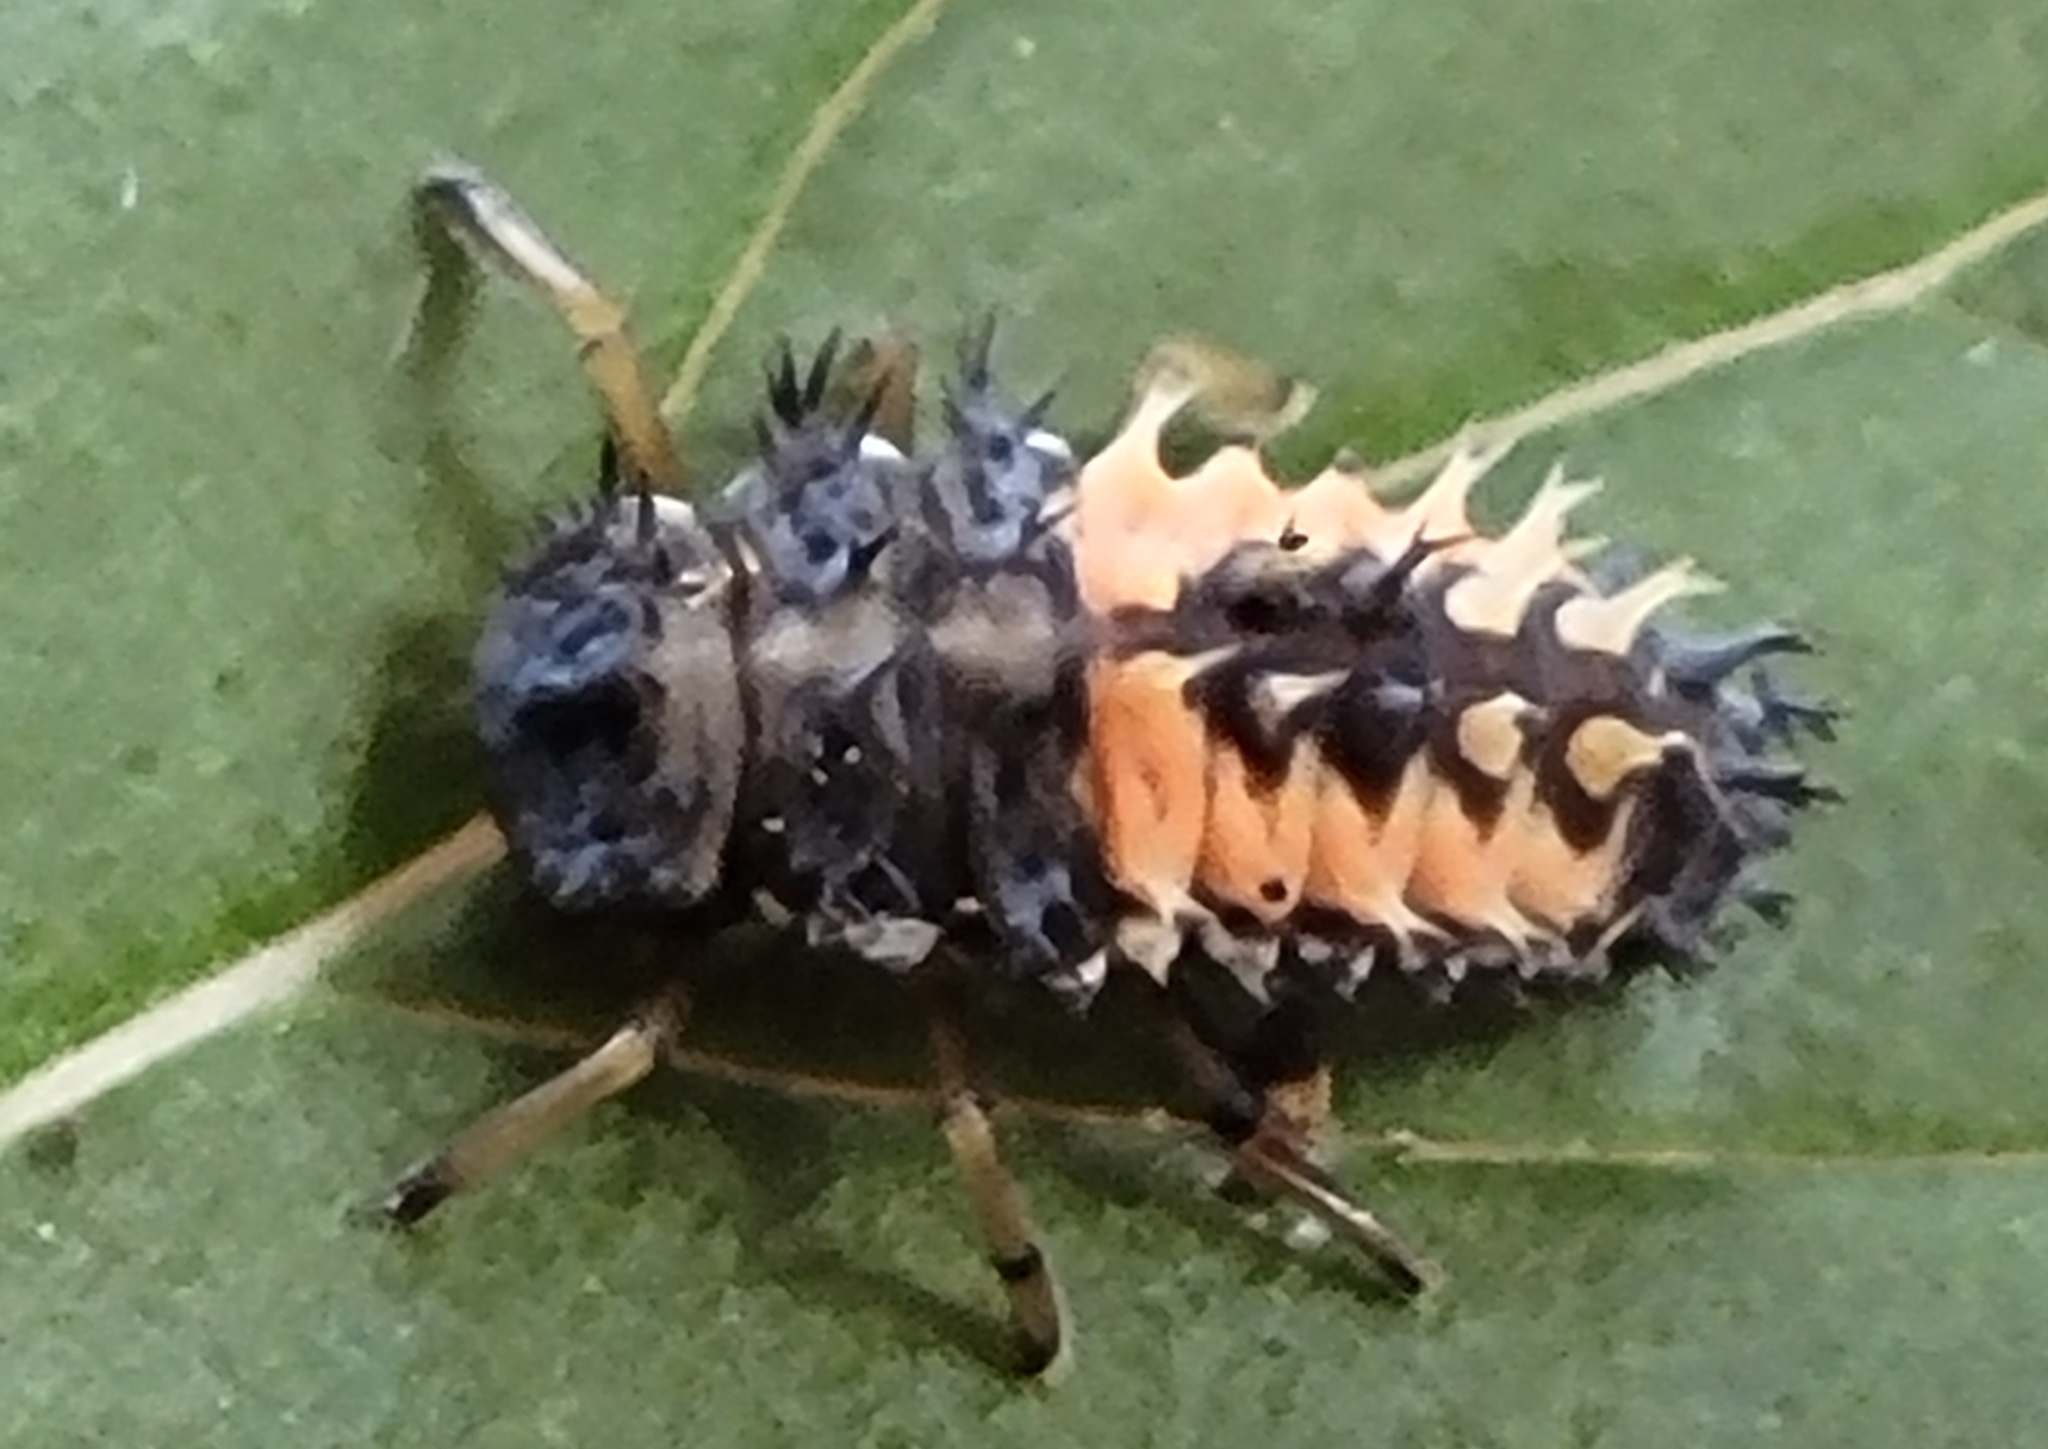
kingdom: Animalia
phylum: Arthropoda
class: Insecta
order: Coleoptera
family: Coccinellidae
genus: Harmonia
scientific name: Harmonia axyridis
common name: Harlequin ladybird
